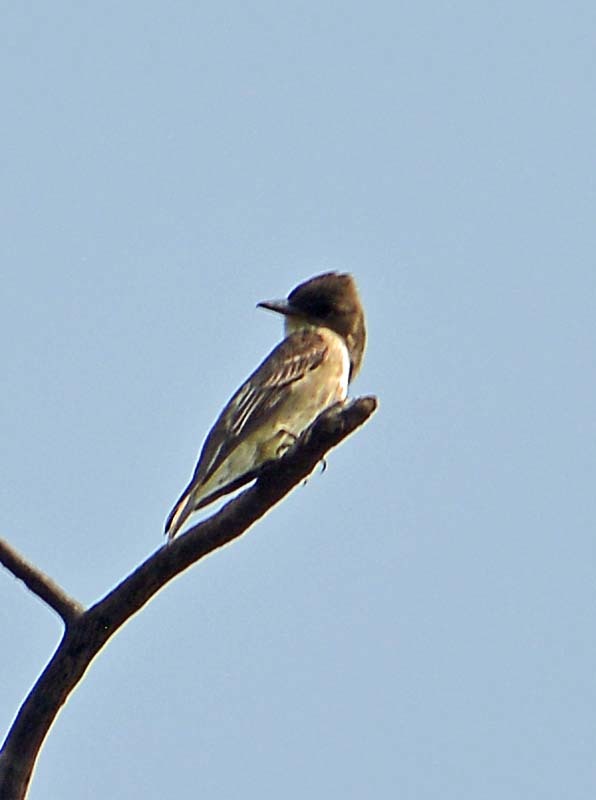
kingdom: Animalia
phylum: Chordata
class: Aves
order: Passeriformes
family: Tyrannidae
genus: Contopus
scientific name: Contopus cooperi
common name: Olive-sided flycatcher
